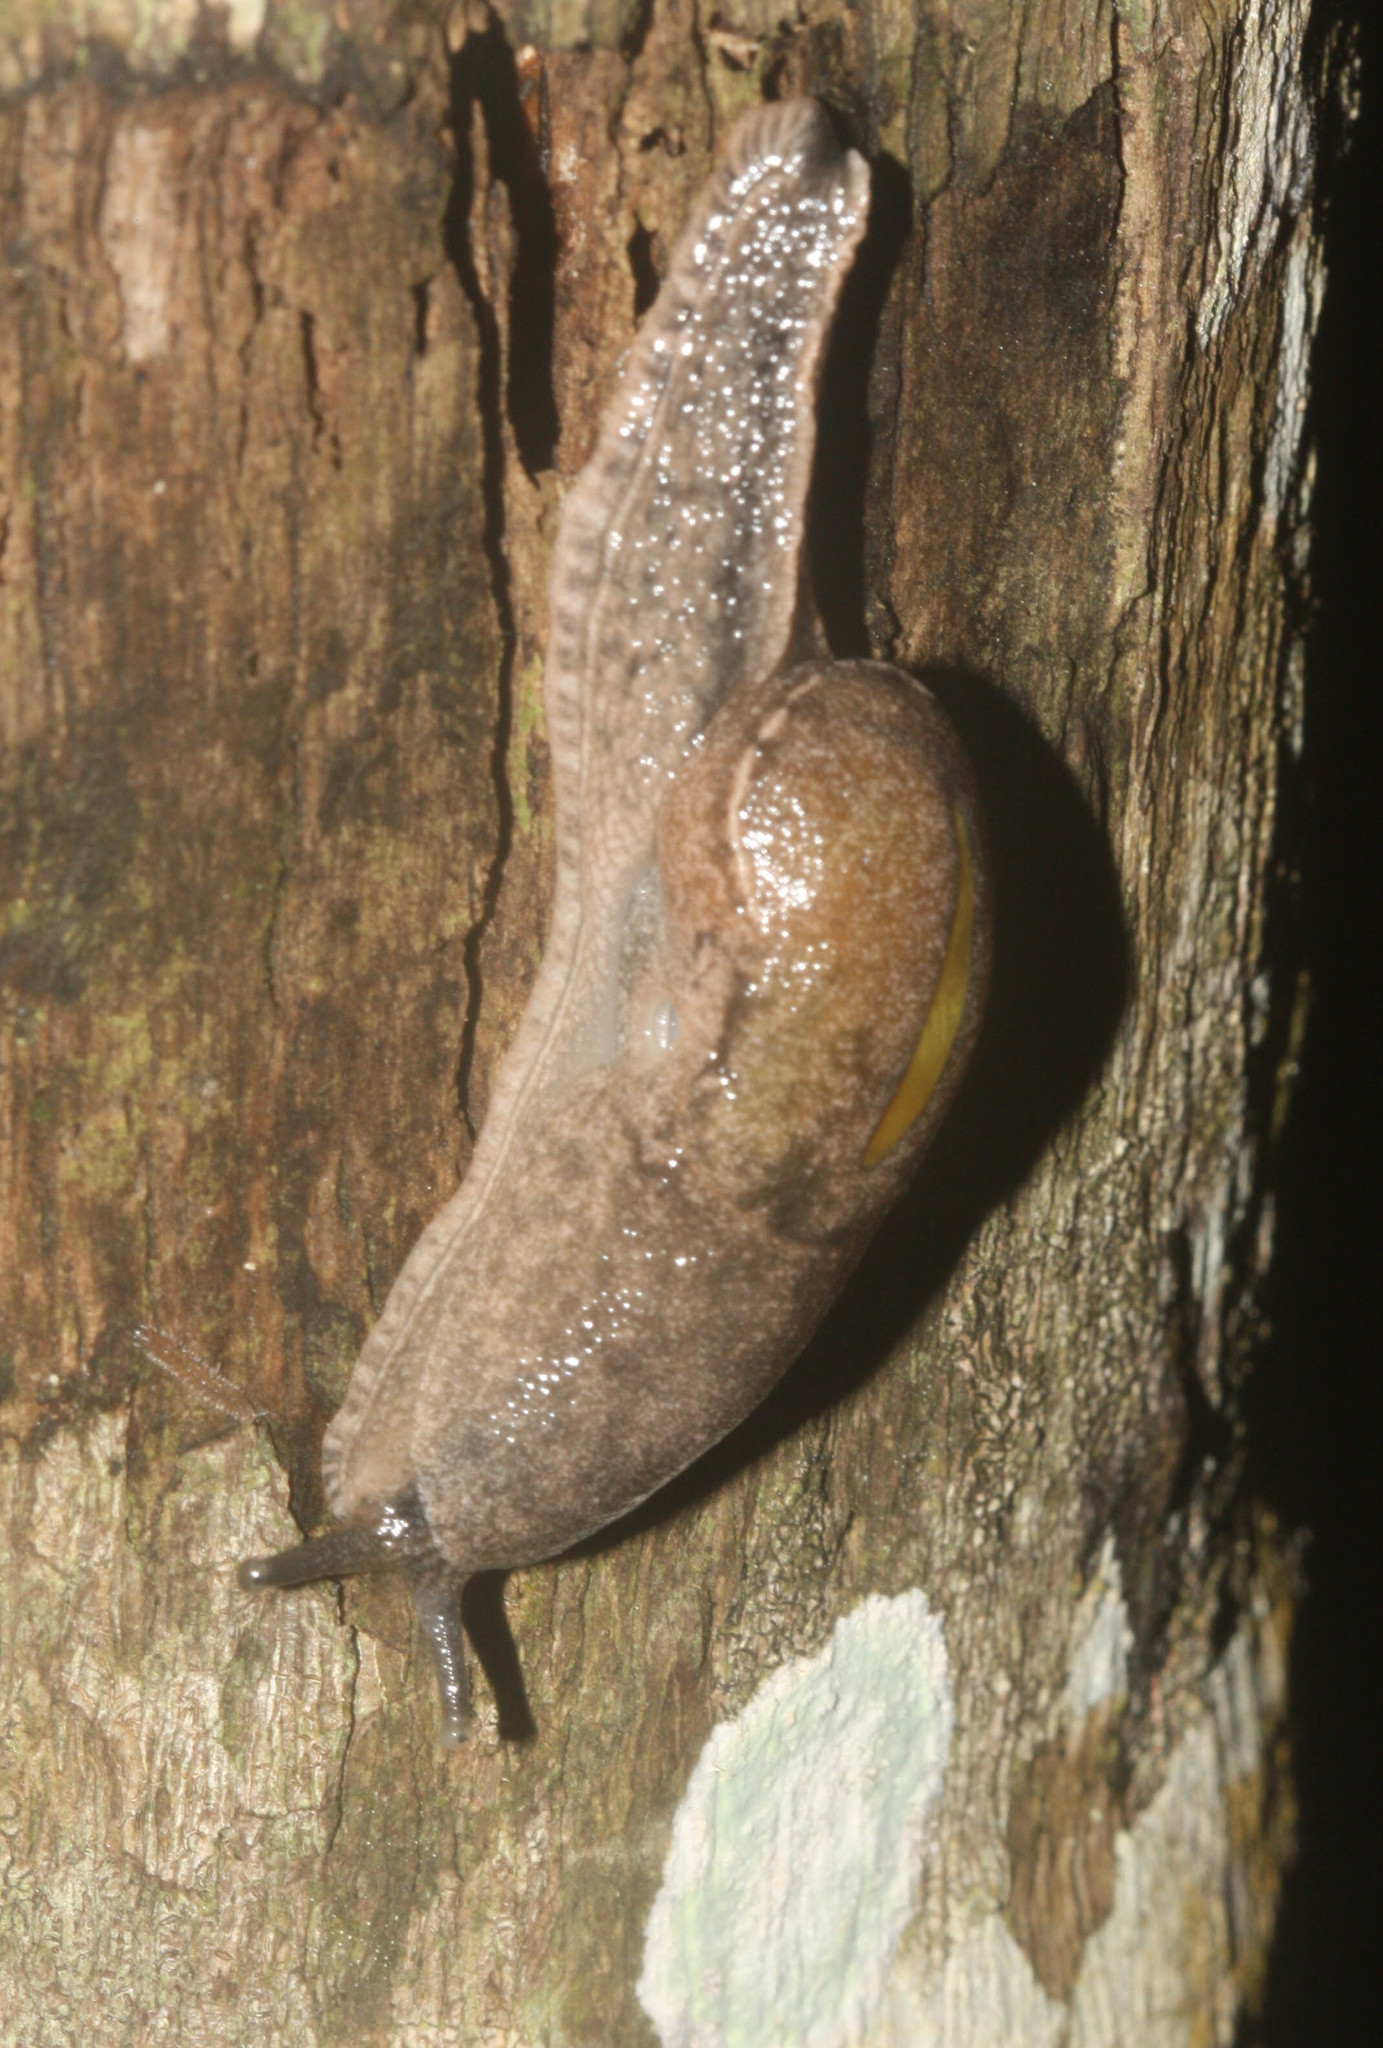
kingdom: Animalia
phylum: Mollusca
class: Gastropoda
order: Stylommatophora
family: Ariophantidae
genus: Parmarion
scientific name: Parmarion martensi
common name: Semi-slug
